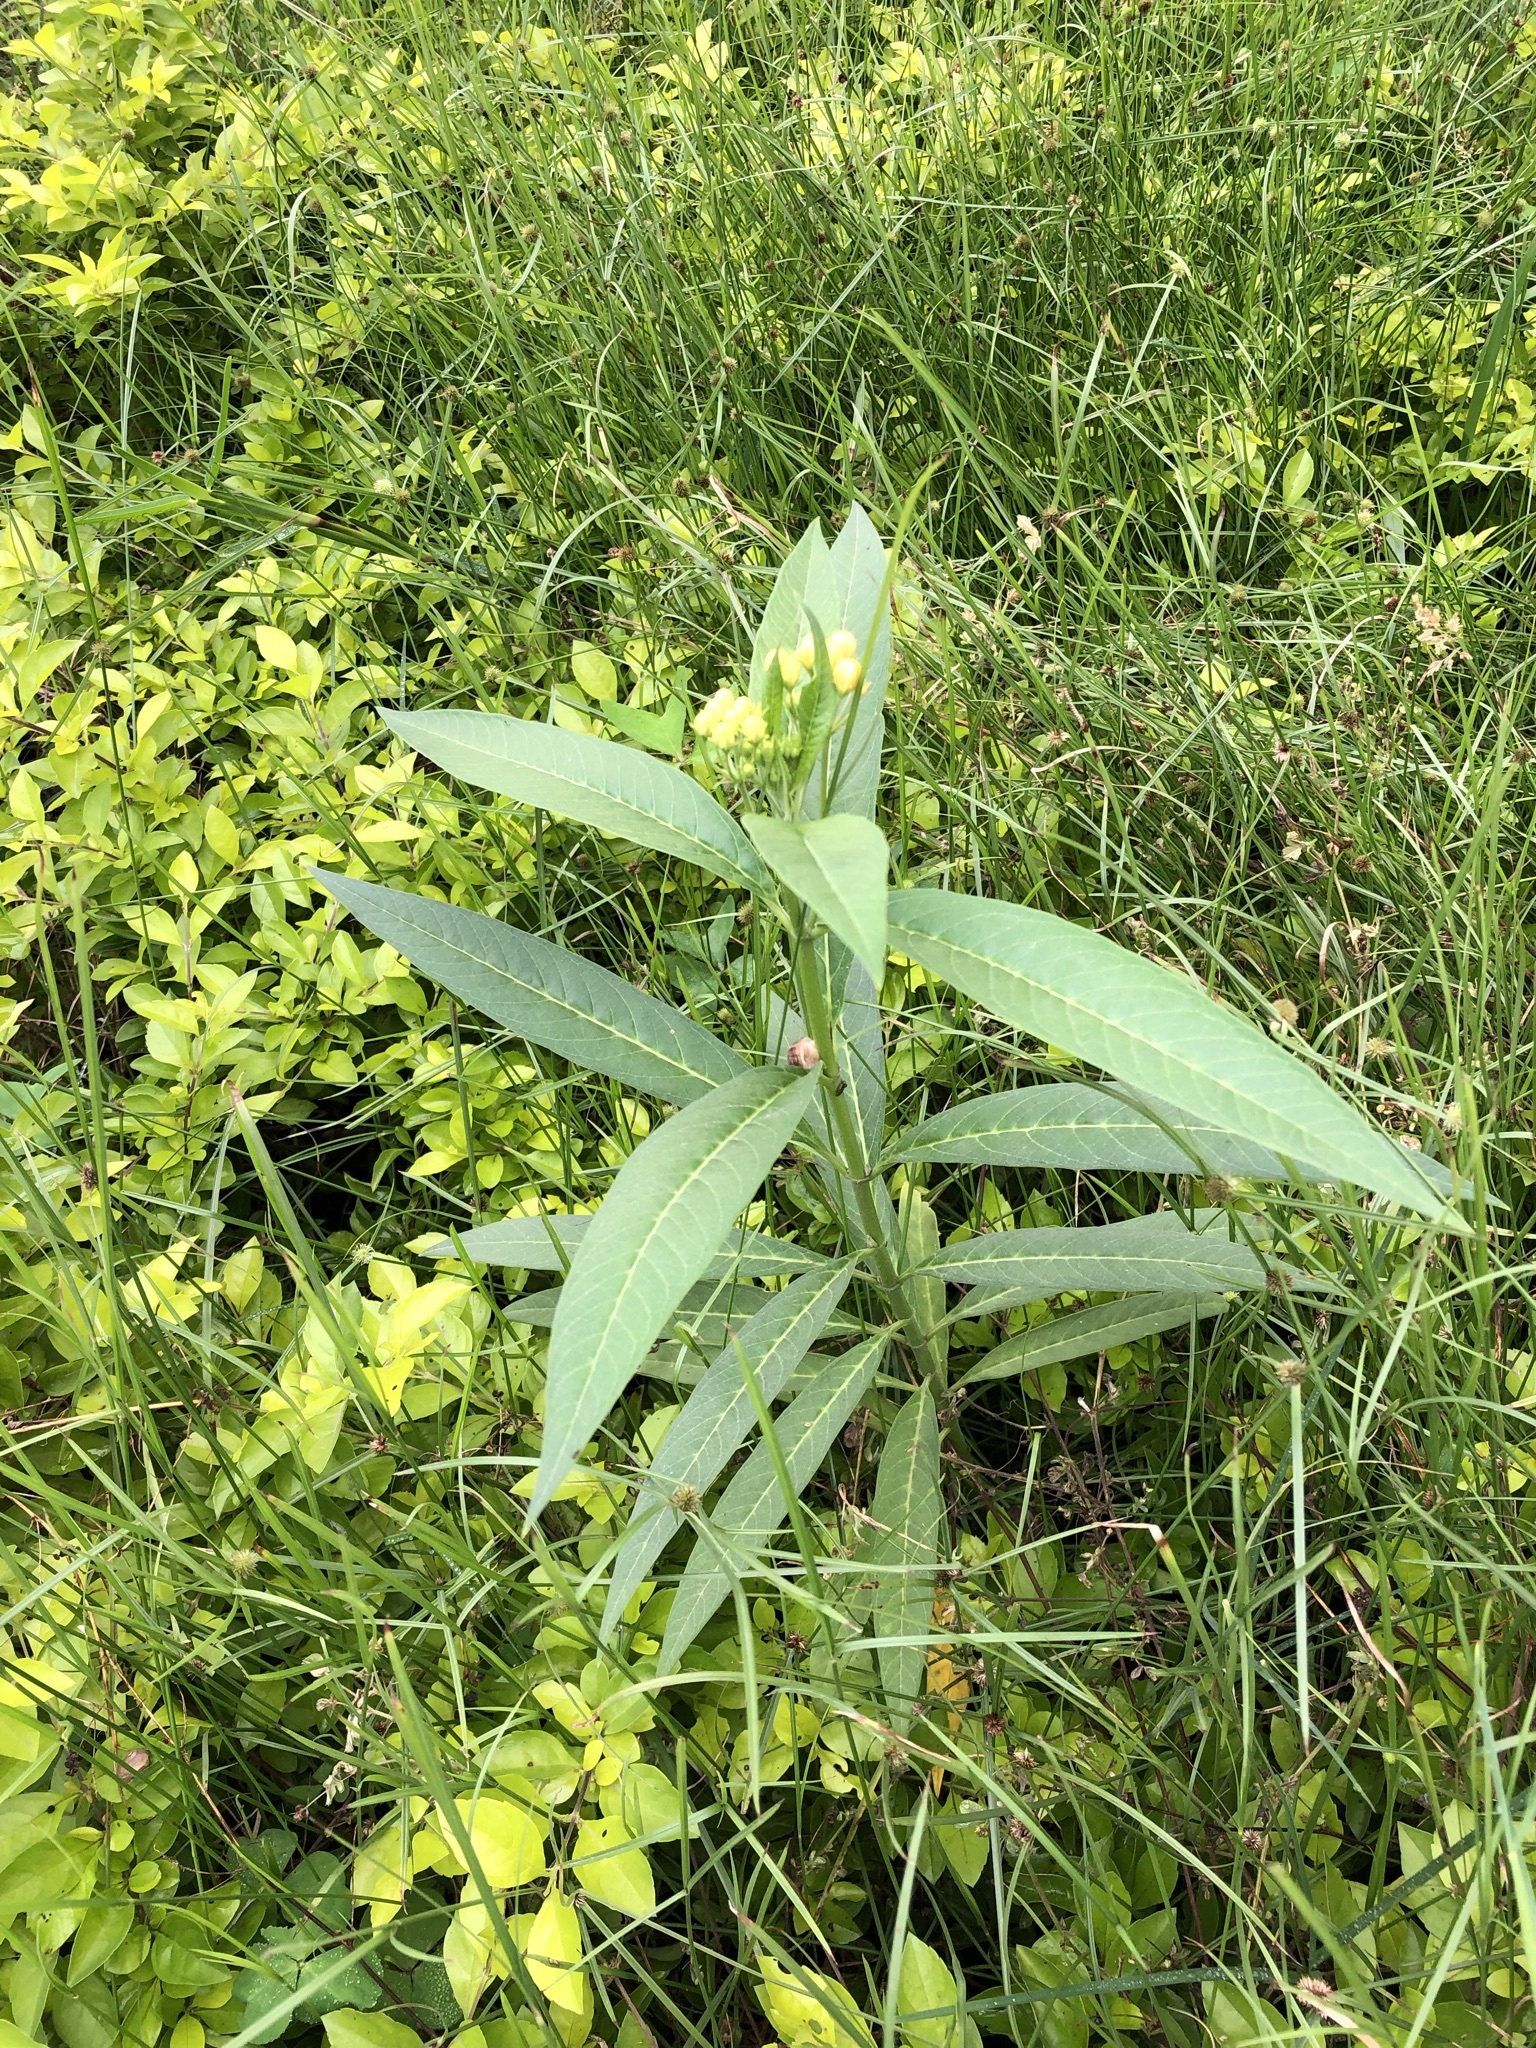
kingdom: Plantae
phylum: Tracheophyta
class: Magnoliopsida
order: Gentianales
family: Apocynaceae
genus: Asclepias
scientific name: Asclepias curassavica
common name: Bloodflower
